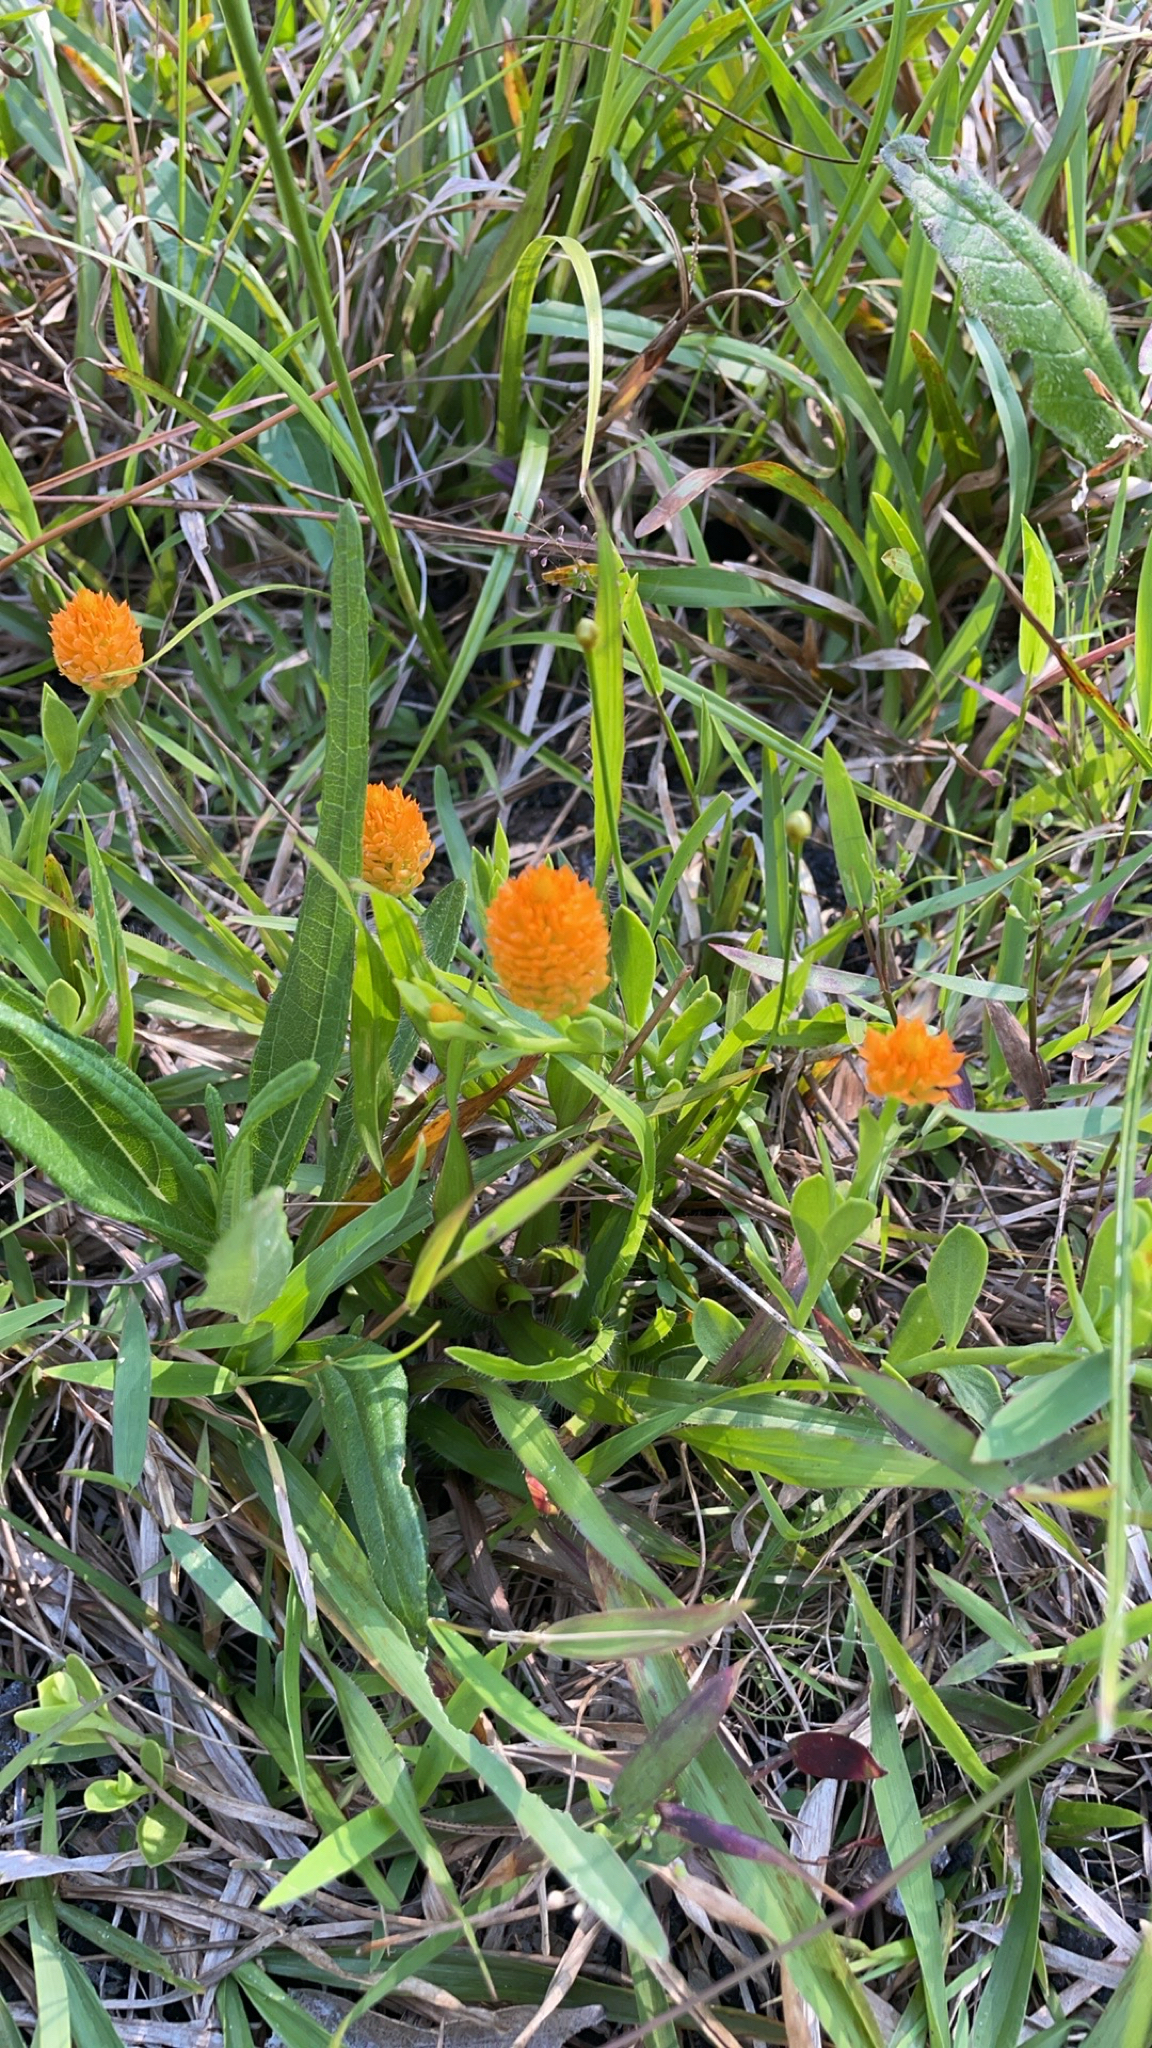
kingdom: Plantae
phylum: Tracheophyta
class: Magnoliopsida
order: Fabales
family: Polygalaceae
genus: Polygala
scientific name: Polygala lutea
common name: Orange milkwort
